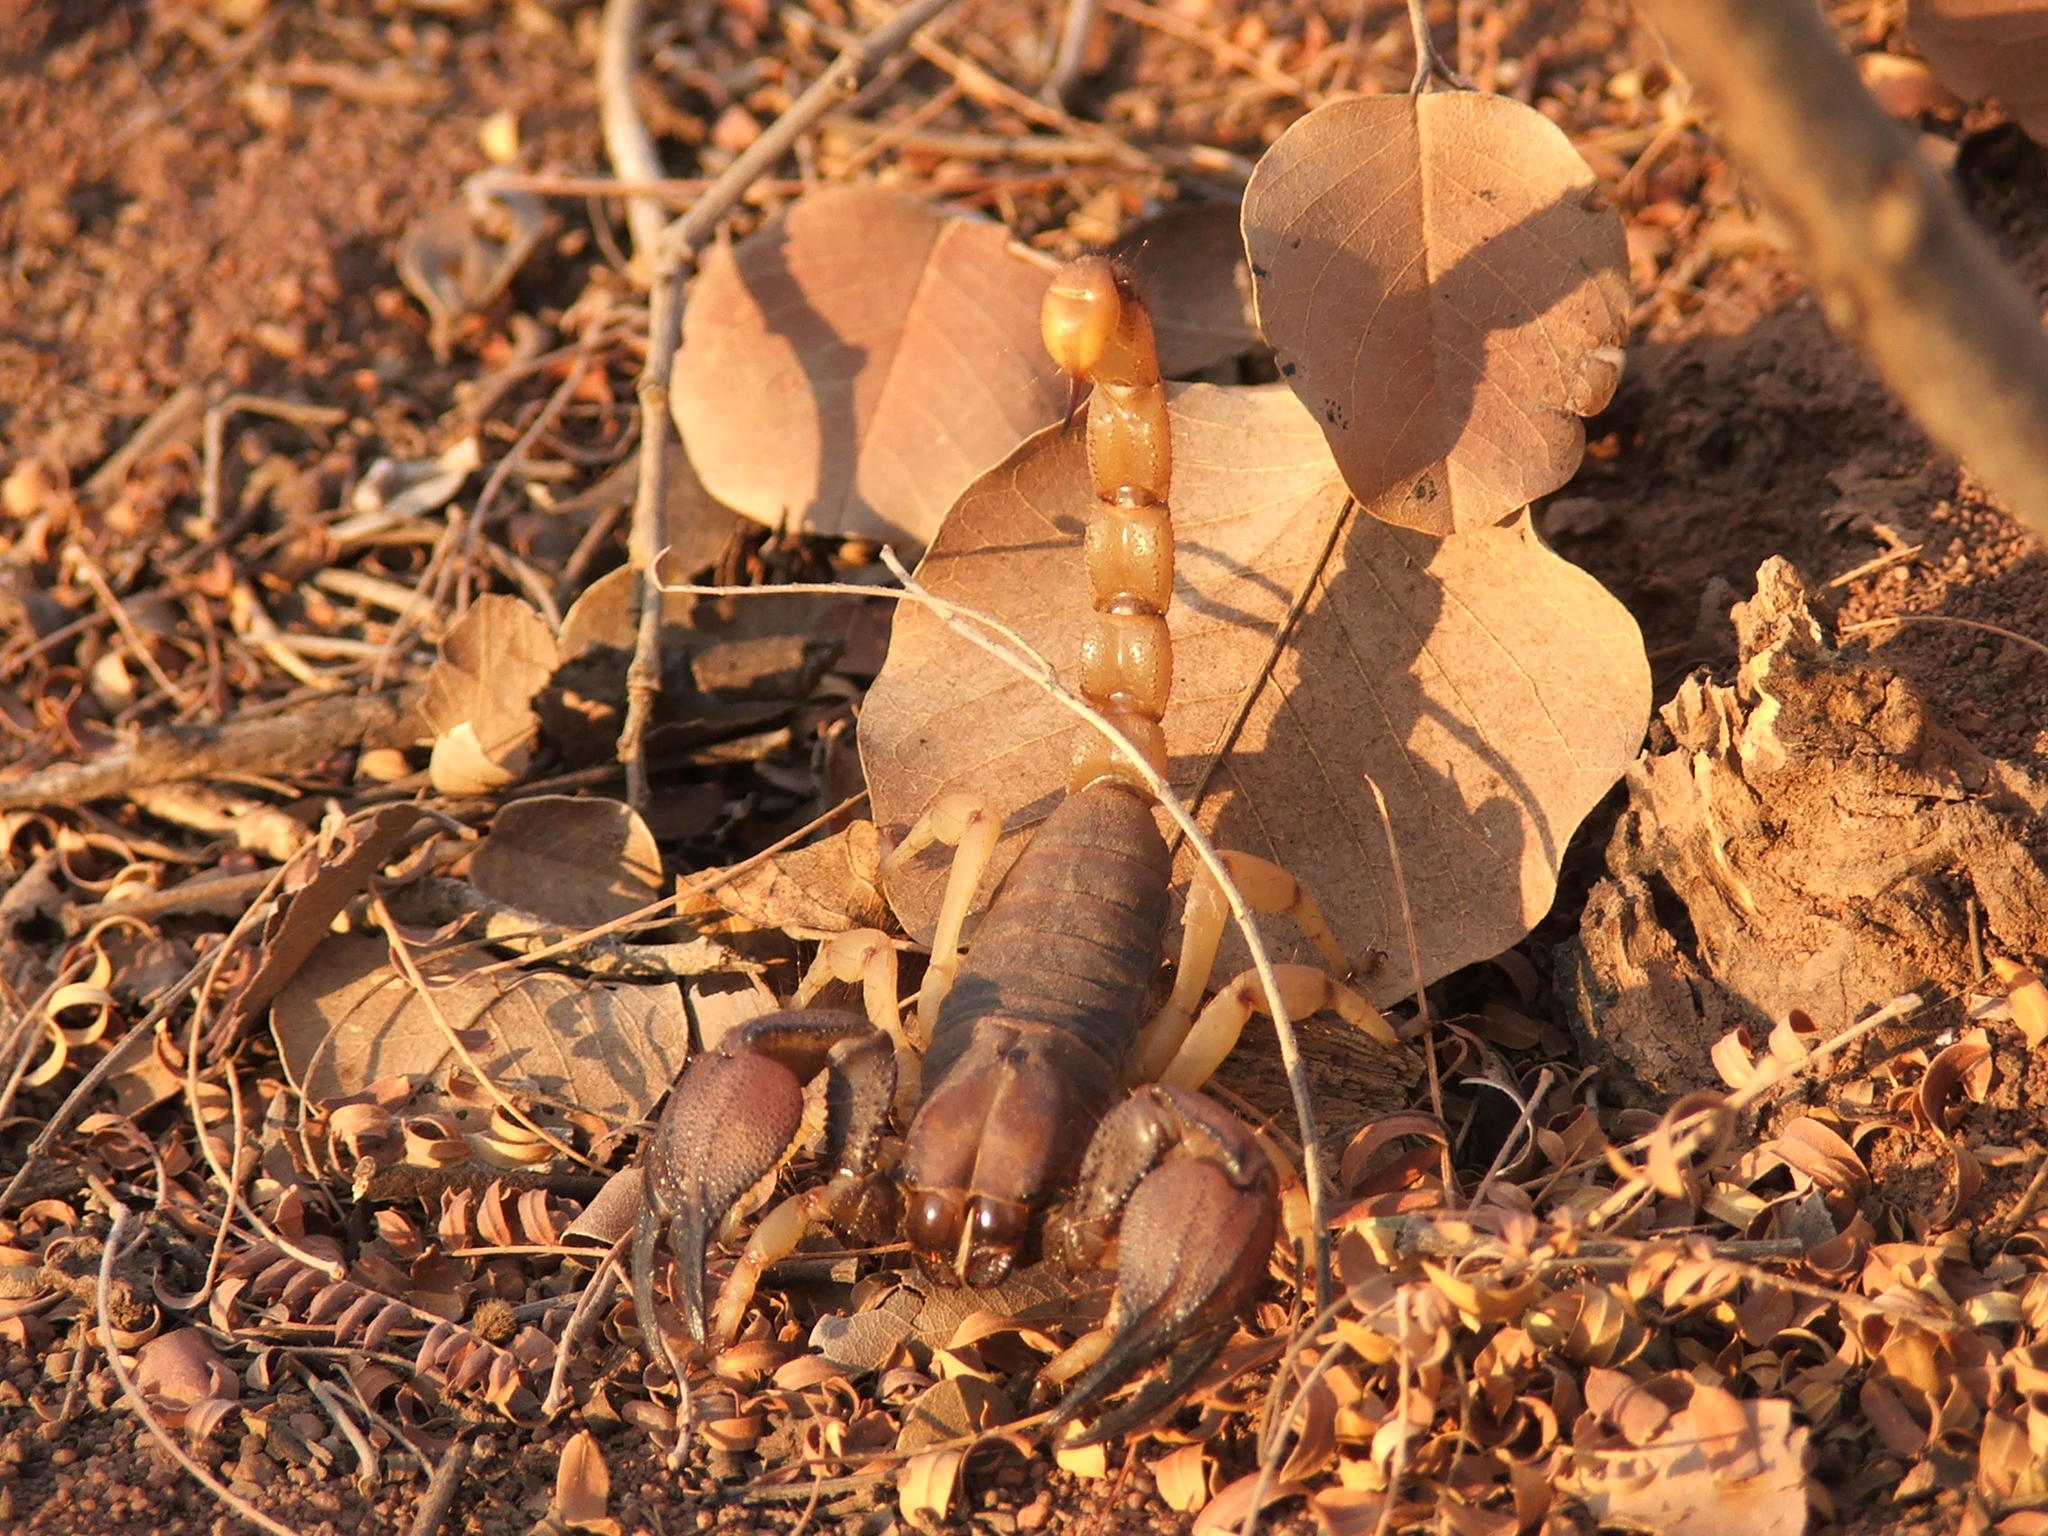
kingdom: Animalia
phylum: Arthropoda
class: Arachnida
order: Scorpiones
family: Scorpionidae
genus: Opistophthalmus
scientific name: Opistophthalmus glabrifrons
